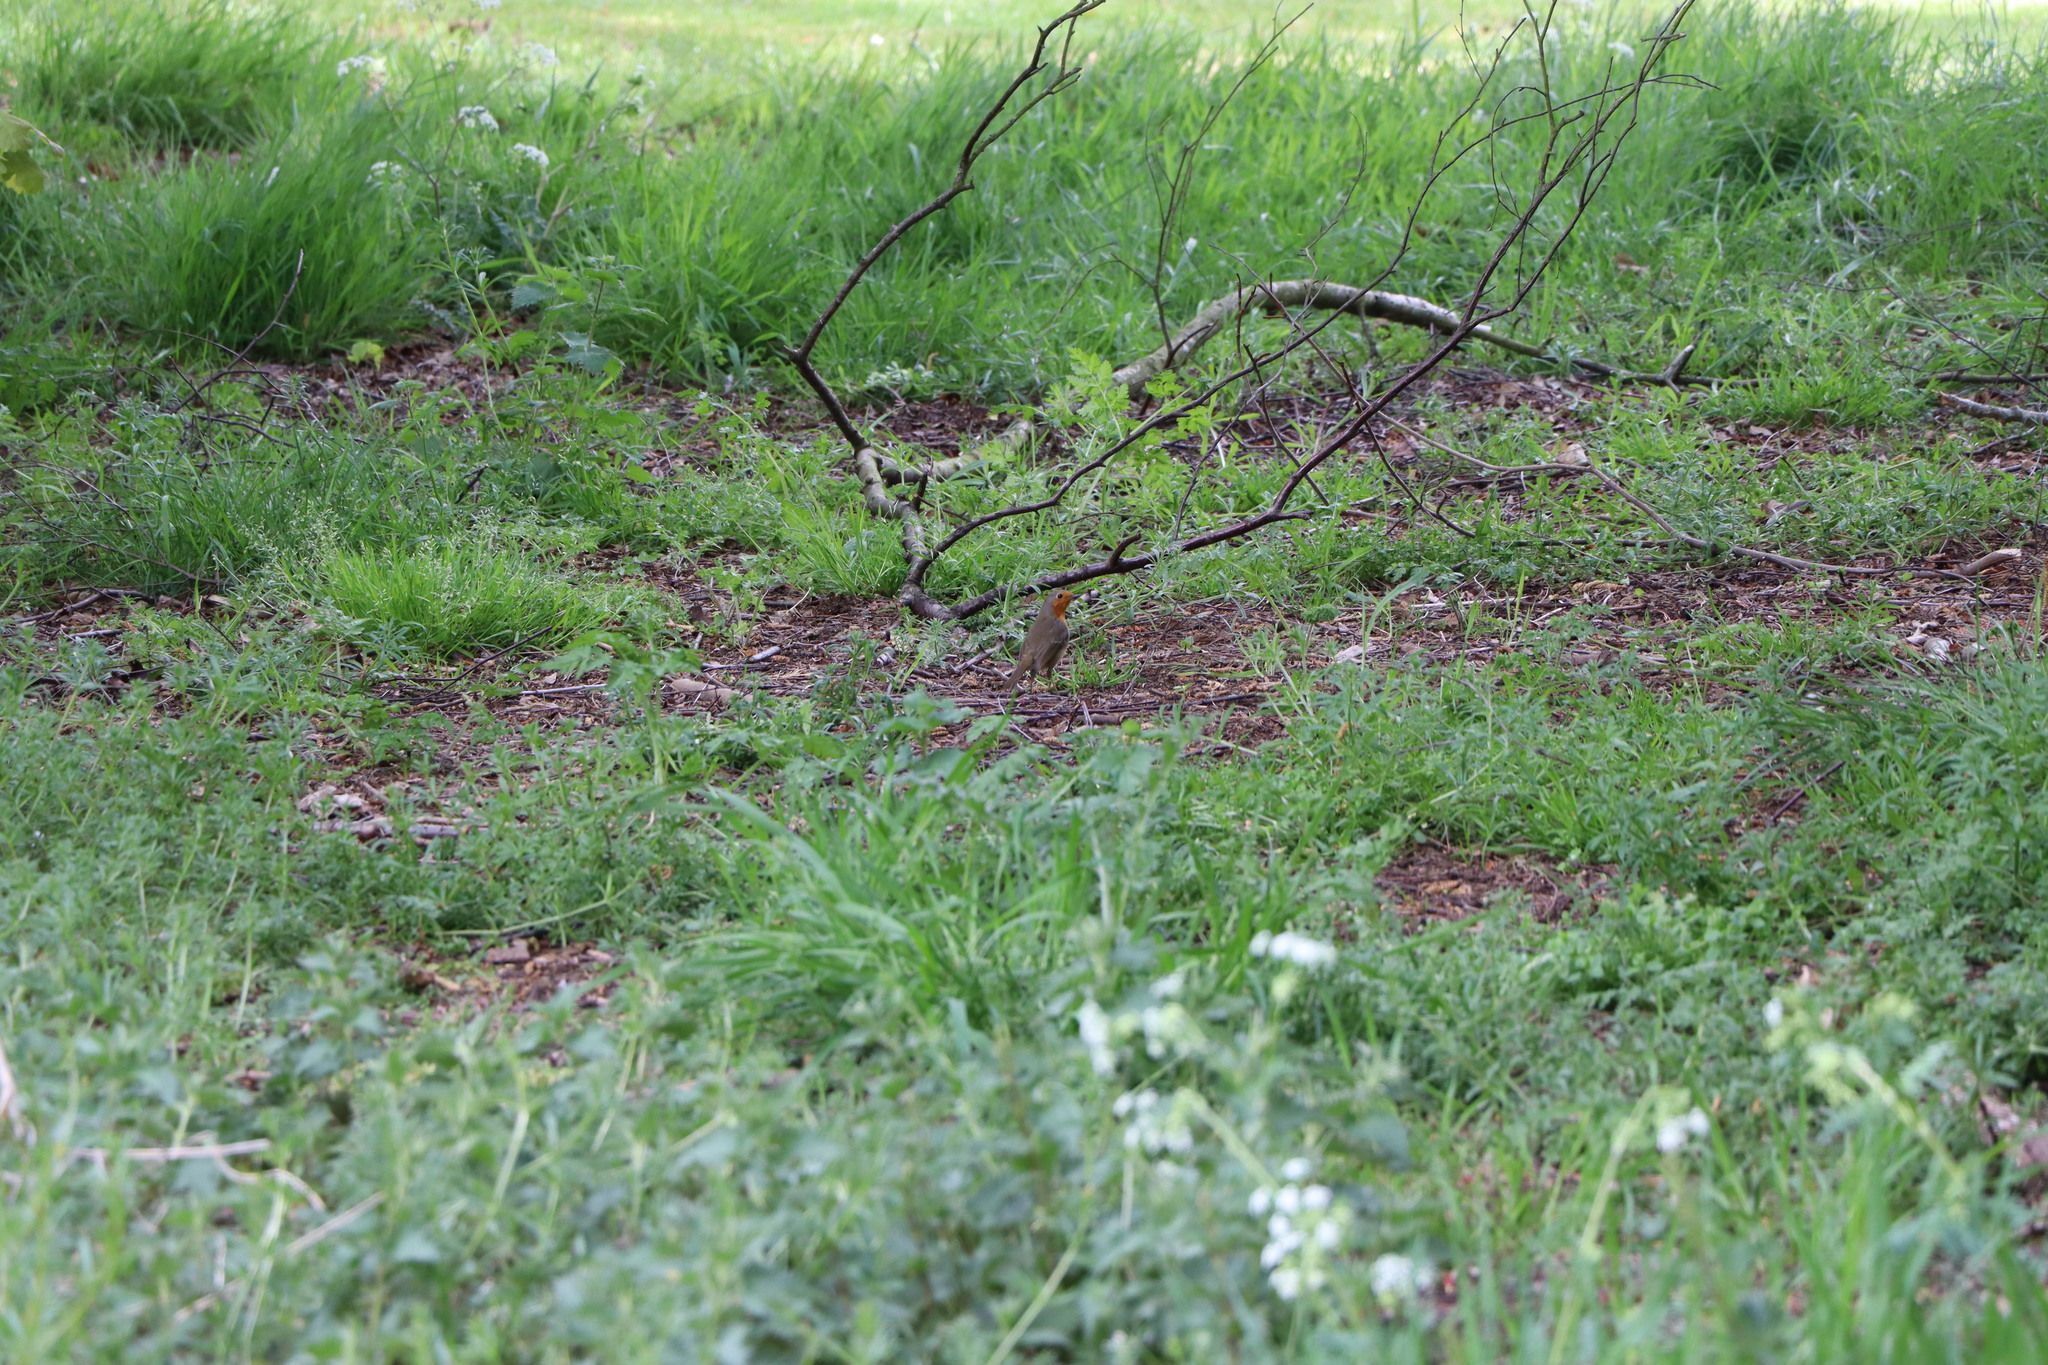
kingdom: Animalia
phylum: Chordata
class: Aves
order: Passeriformes
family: Muscicapidae
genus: Erithacus
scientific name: Erithacus rubecula
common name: European robin
